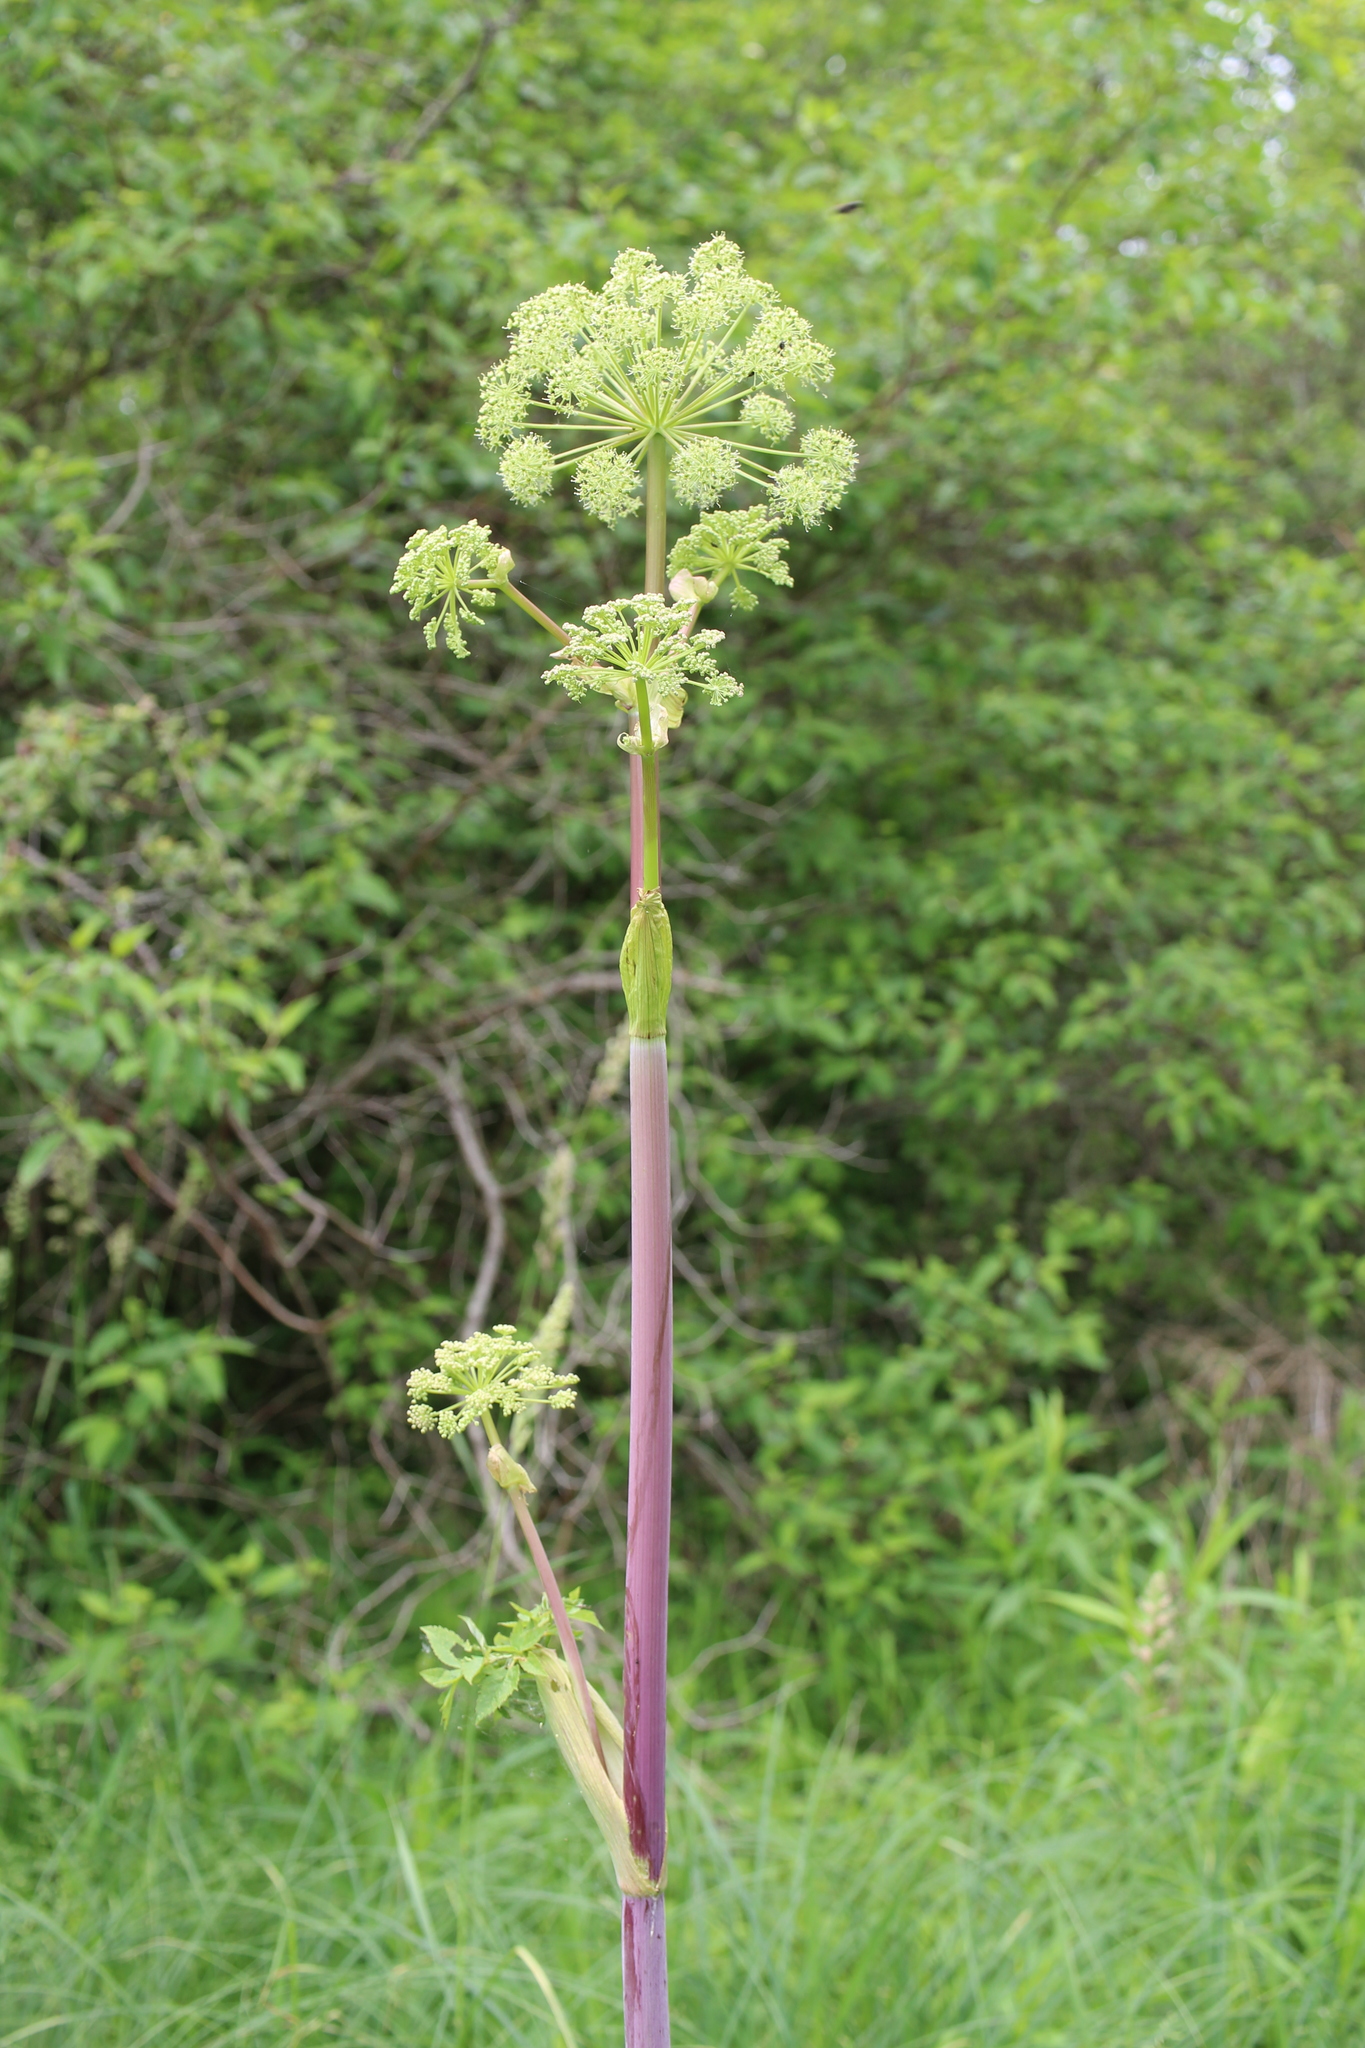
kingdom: Plantae
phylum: Tracheophyta
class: Magnoliopsida
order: Apiales
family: Apiaceae
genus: Angelica
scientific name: Angelica atropurpurea
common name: Great angelica
